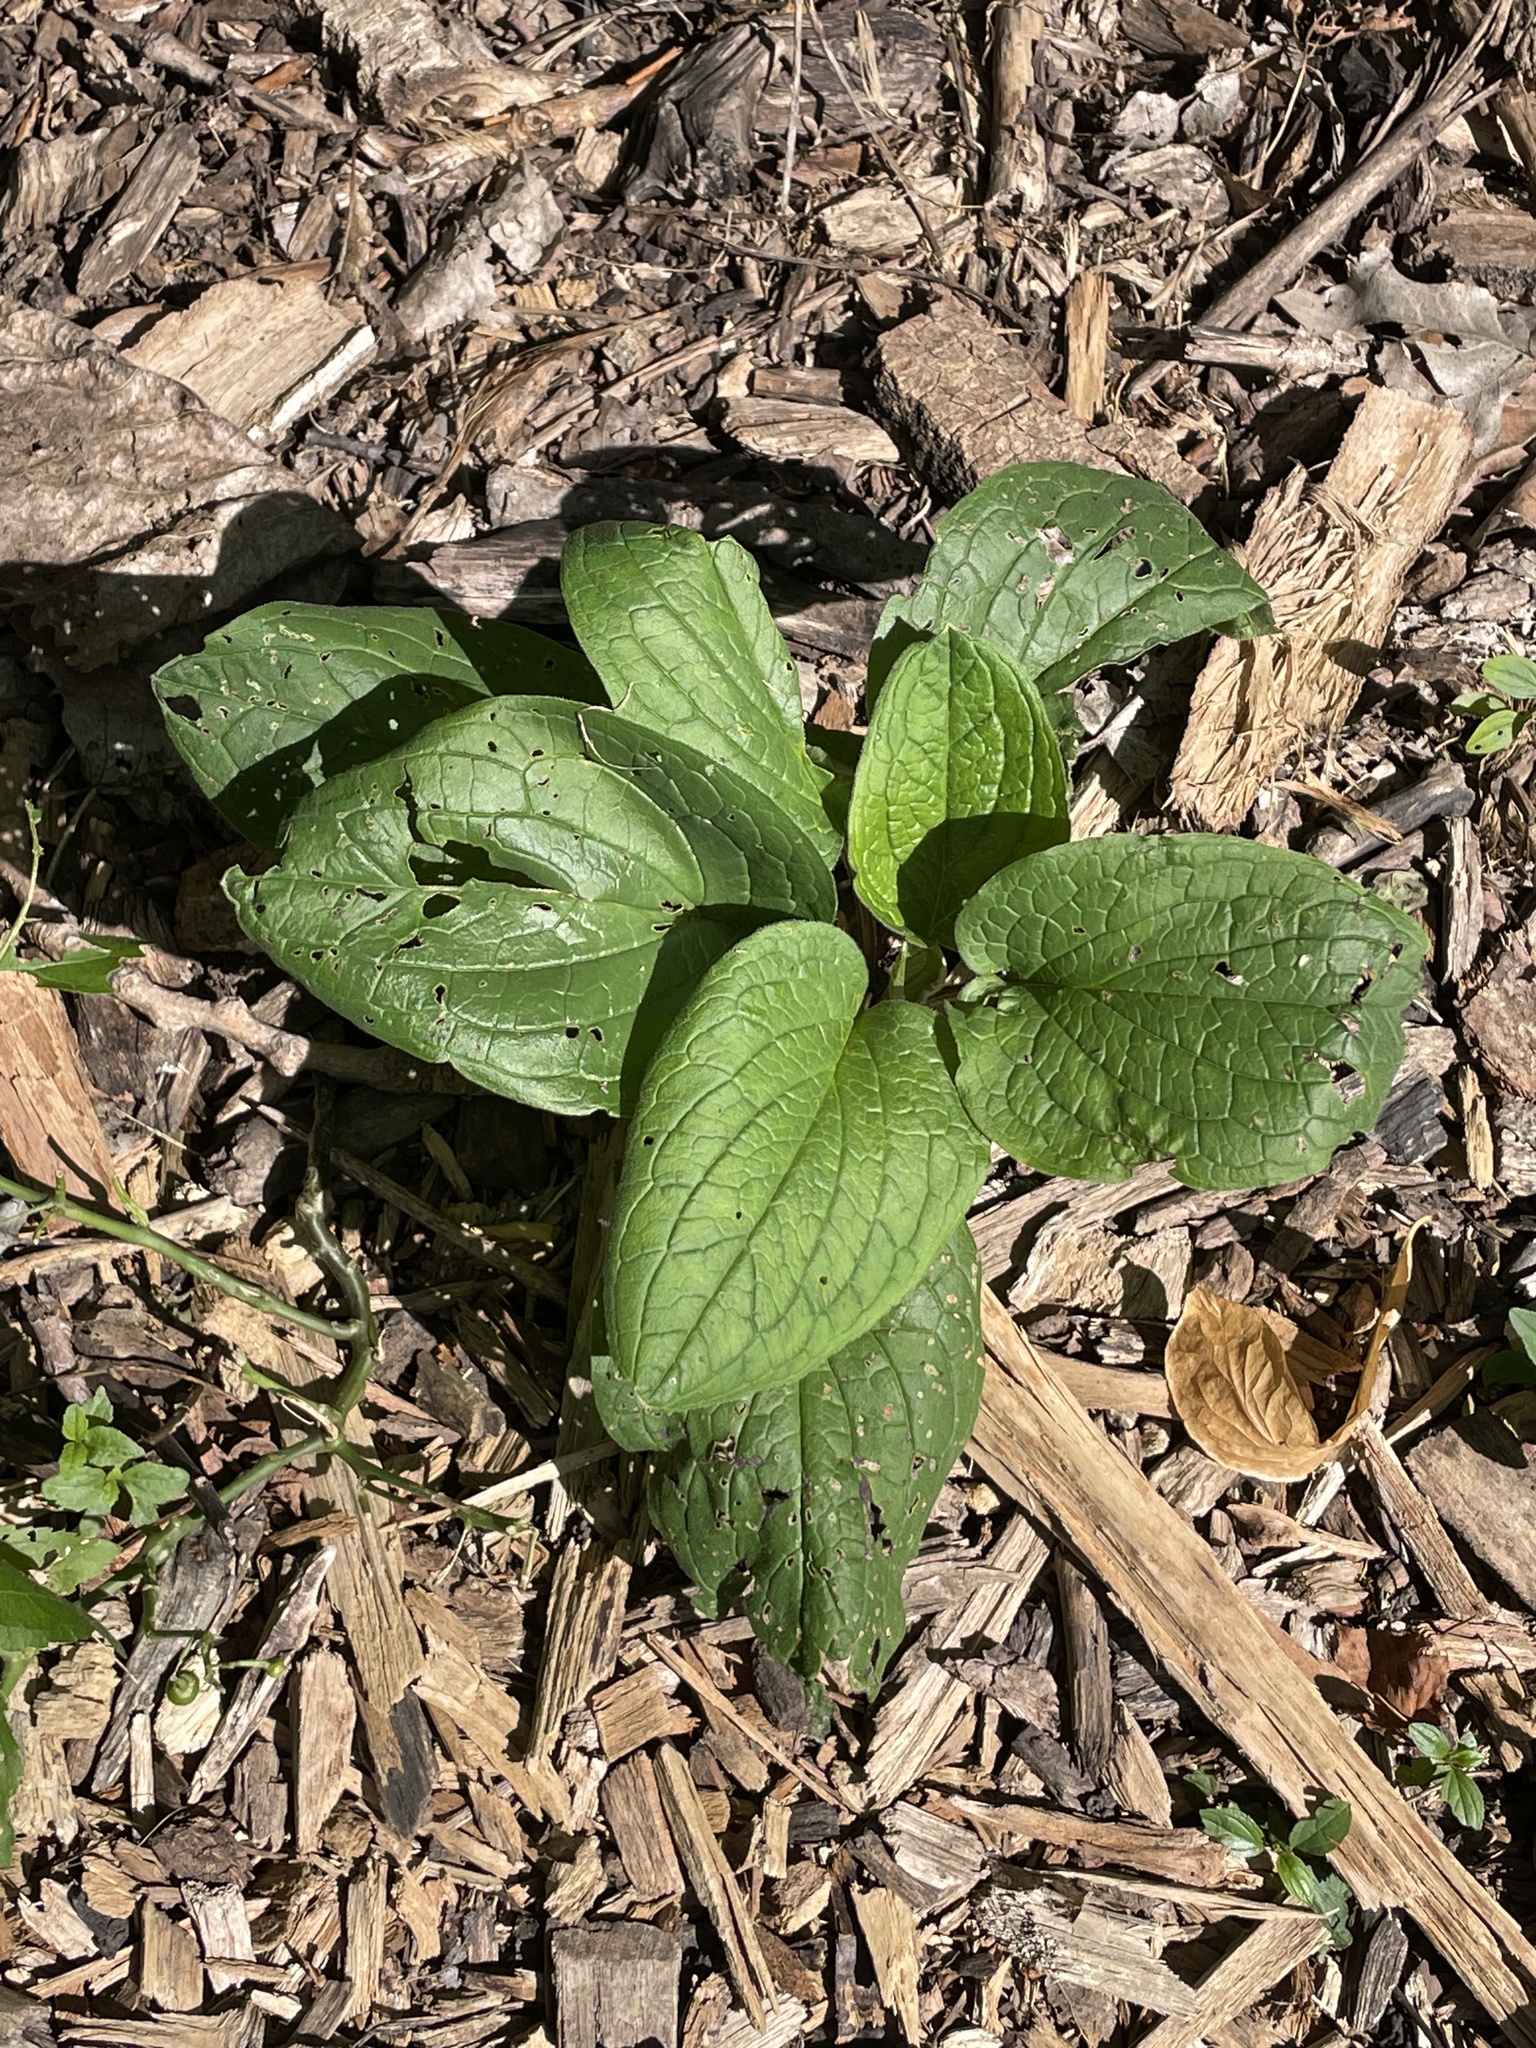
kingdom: Plantae
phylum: Tracheophyta
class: Magnoliopsida
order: Boraginales
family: Boraginaceae
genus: Hackelia
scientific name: Hackelia virginiana
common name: Beggar's-lice
